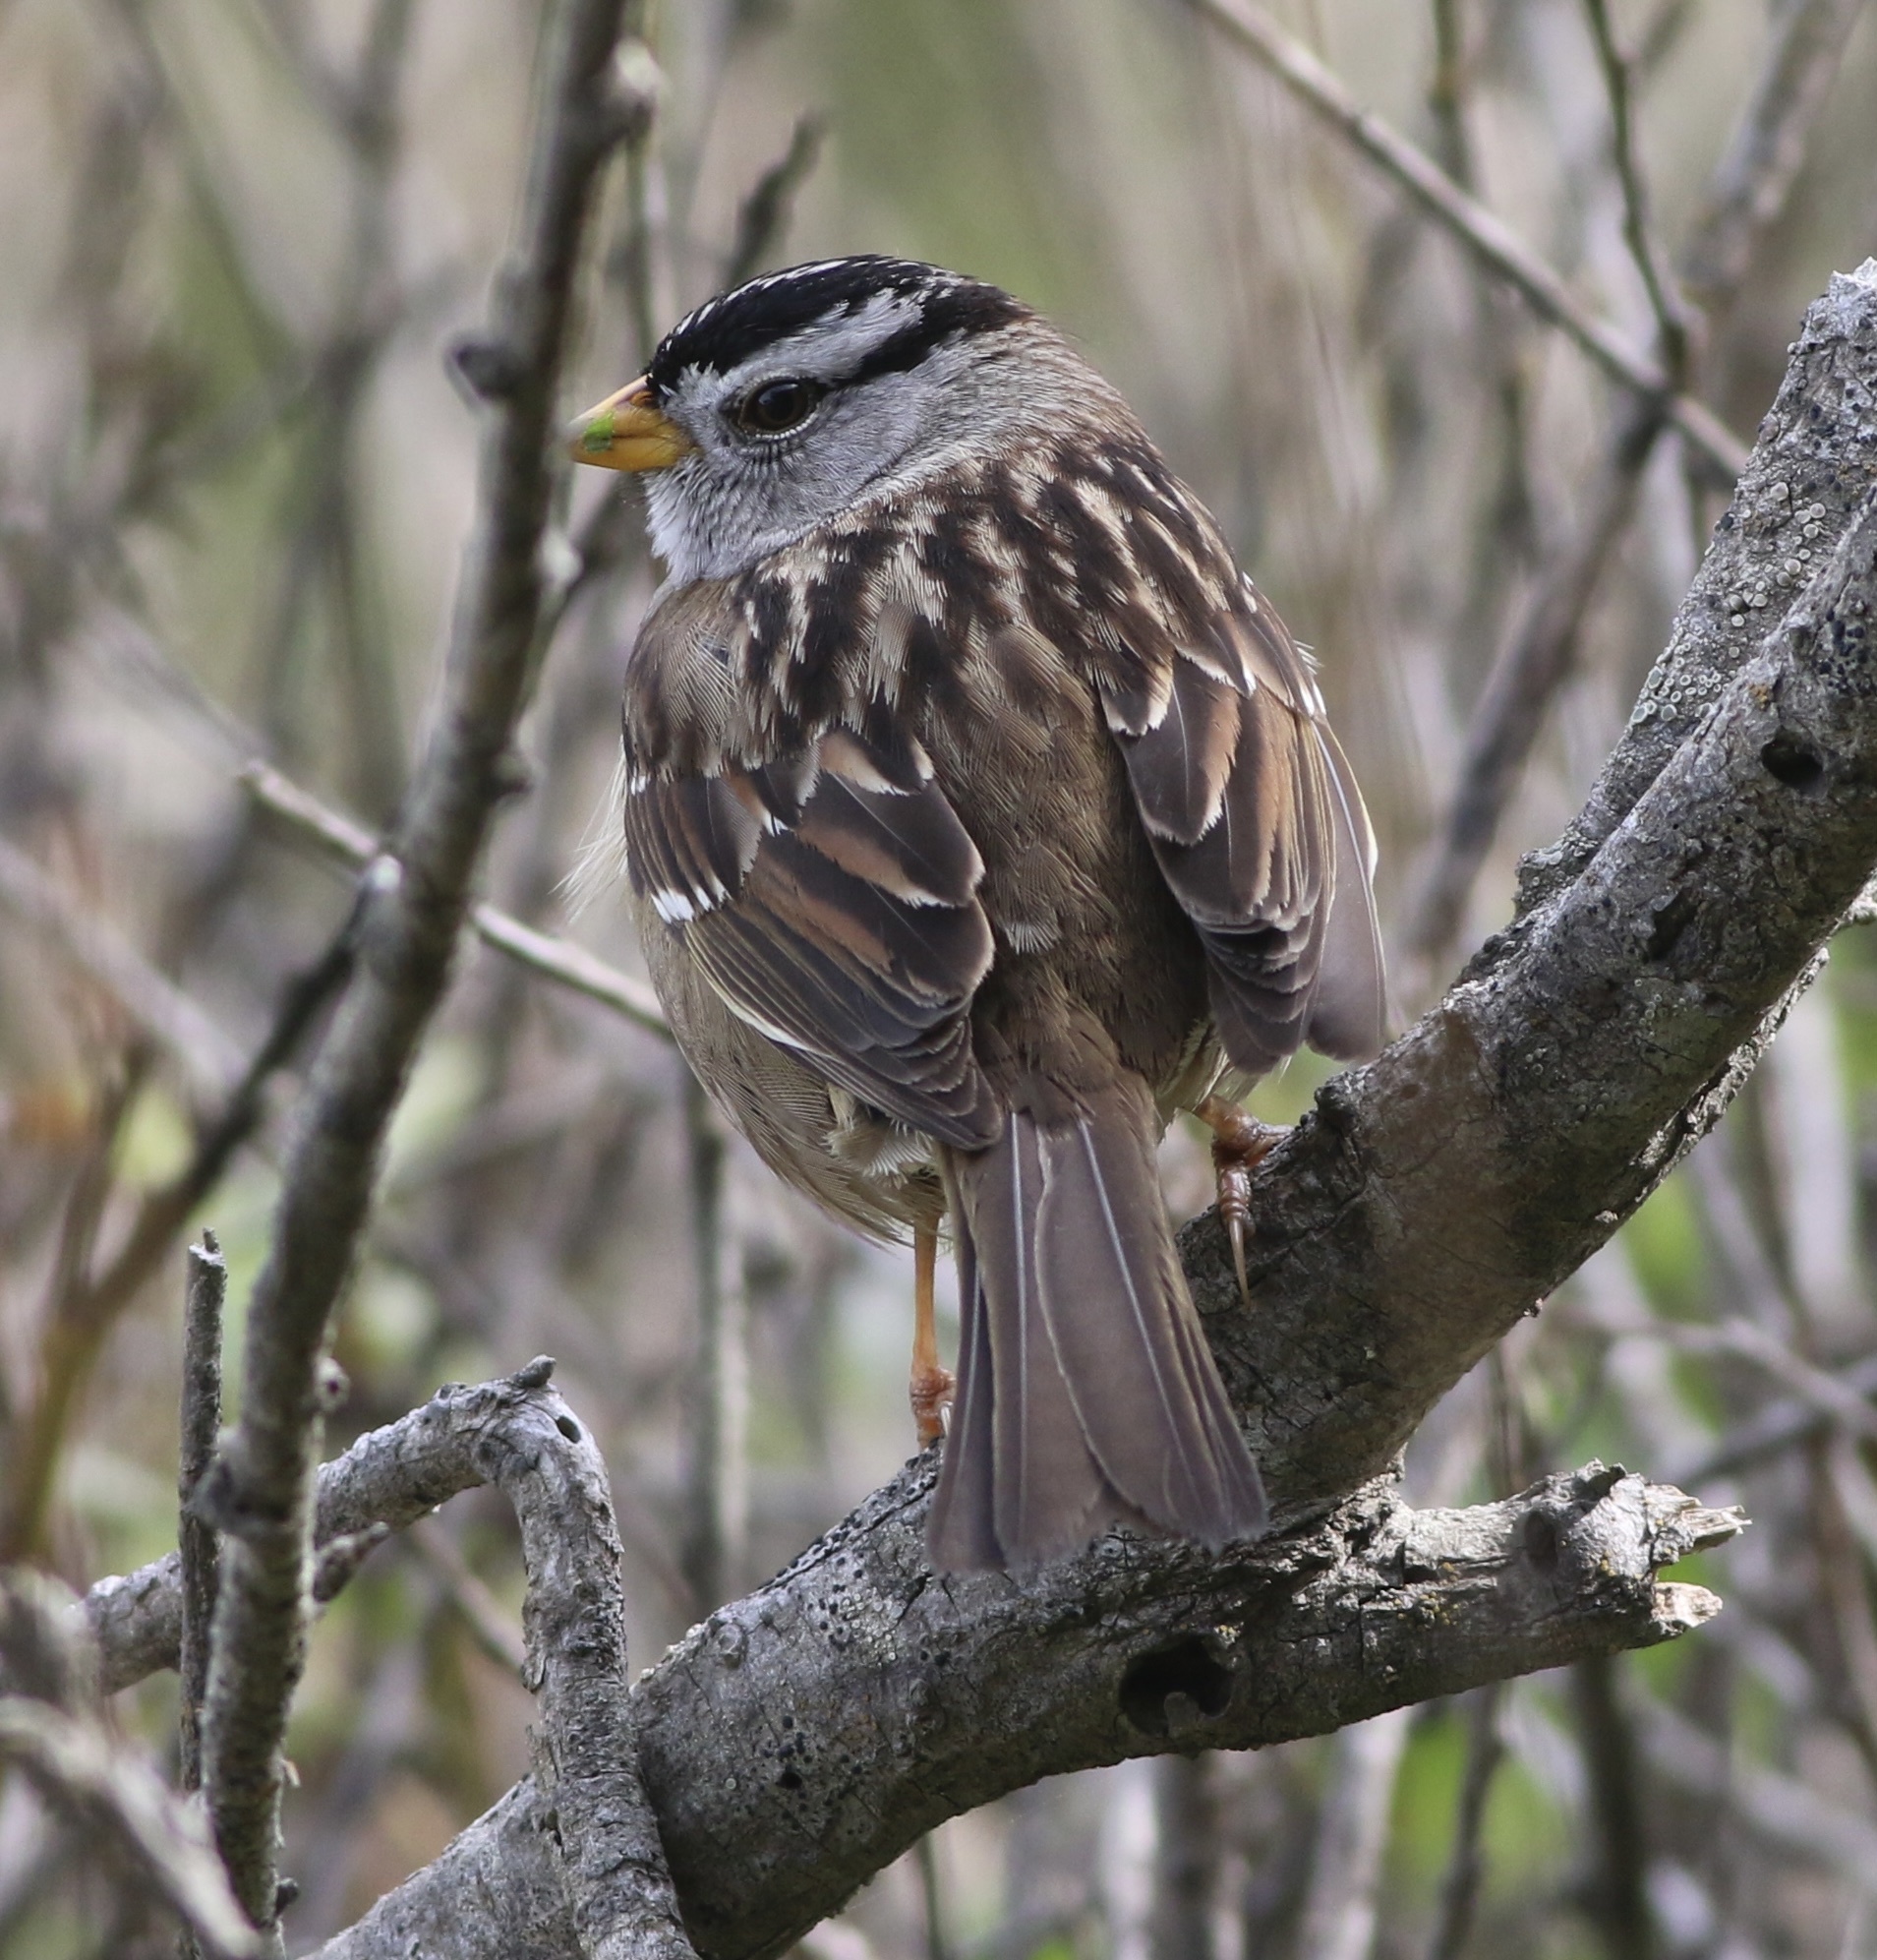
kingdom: Animalia
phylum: Chordata
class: Aves
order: Passeriformes
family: Passerellidae
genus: Zonotrichia
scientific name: Zonotrichia leucophrys
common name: White-crowned sparrow
